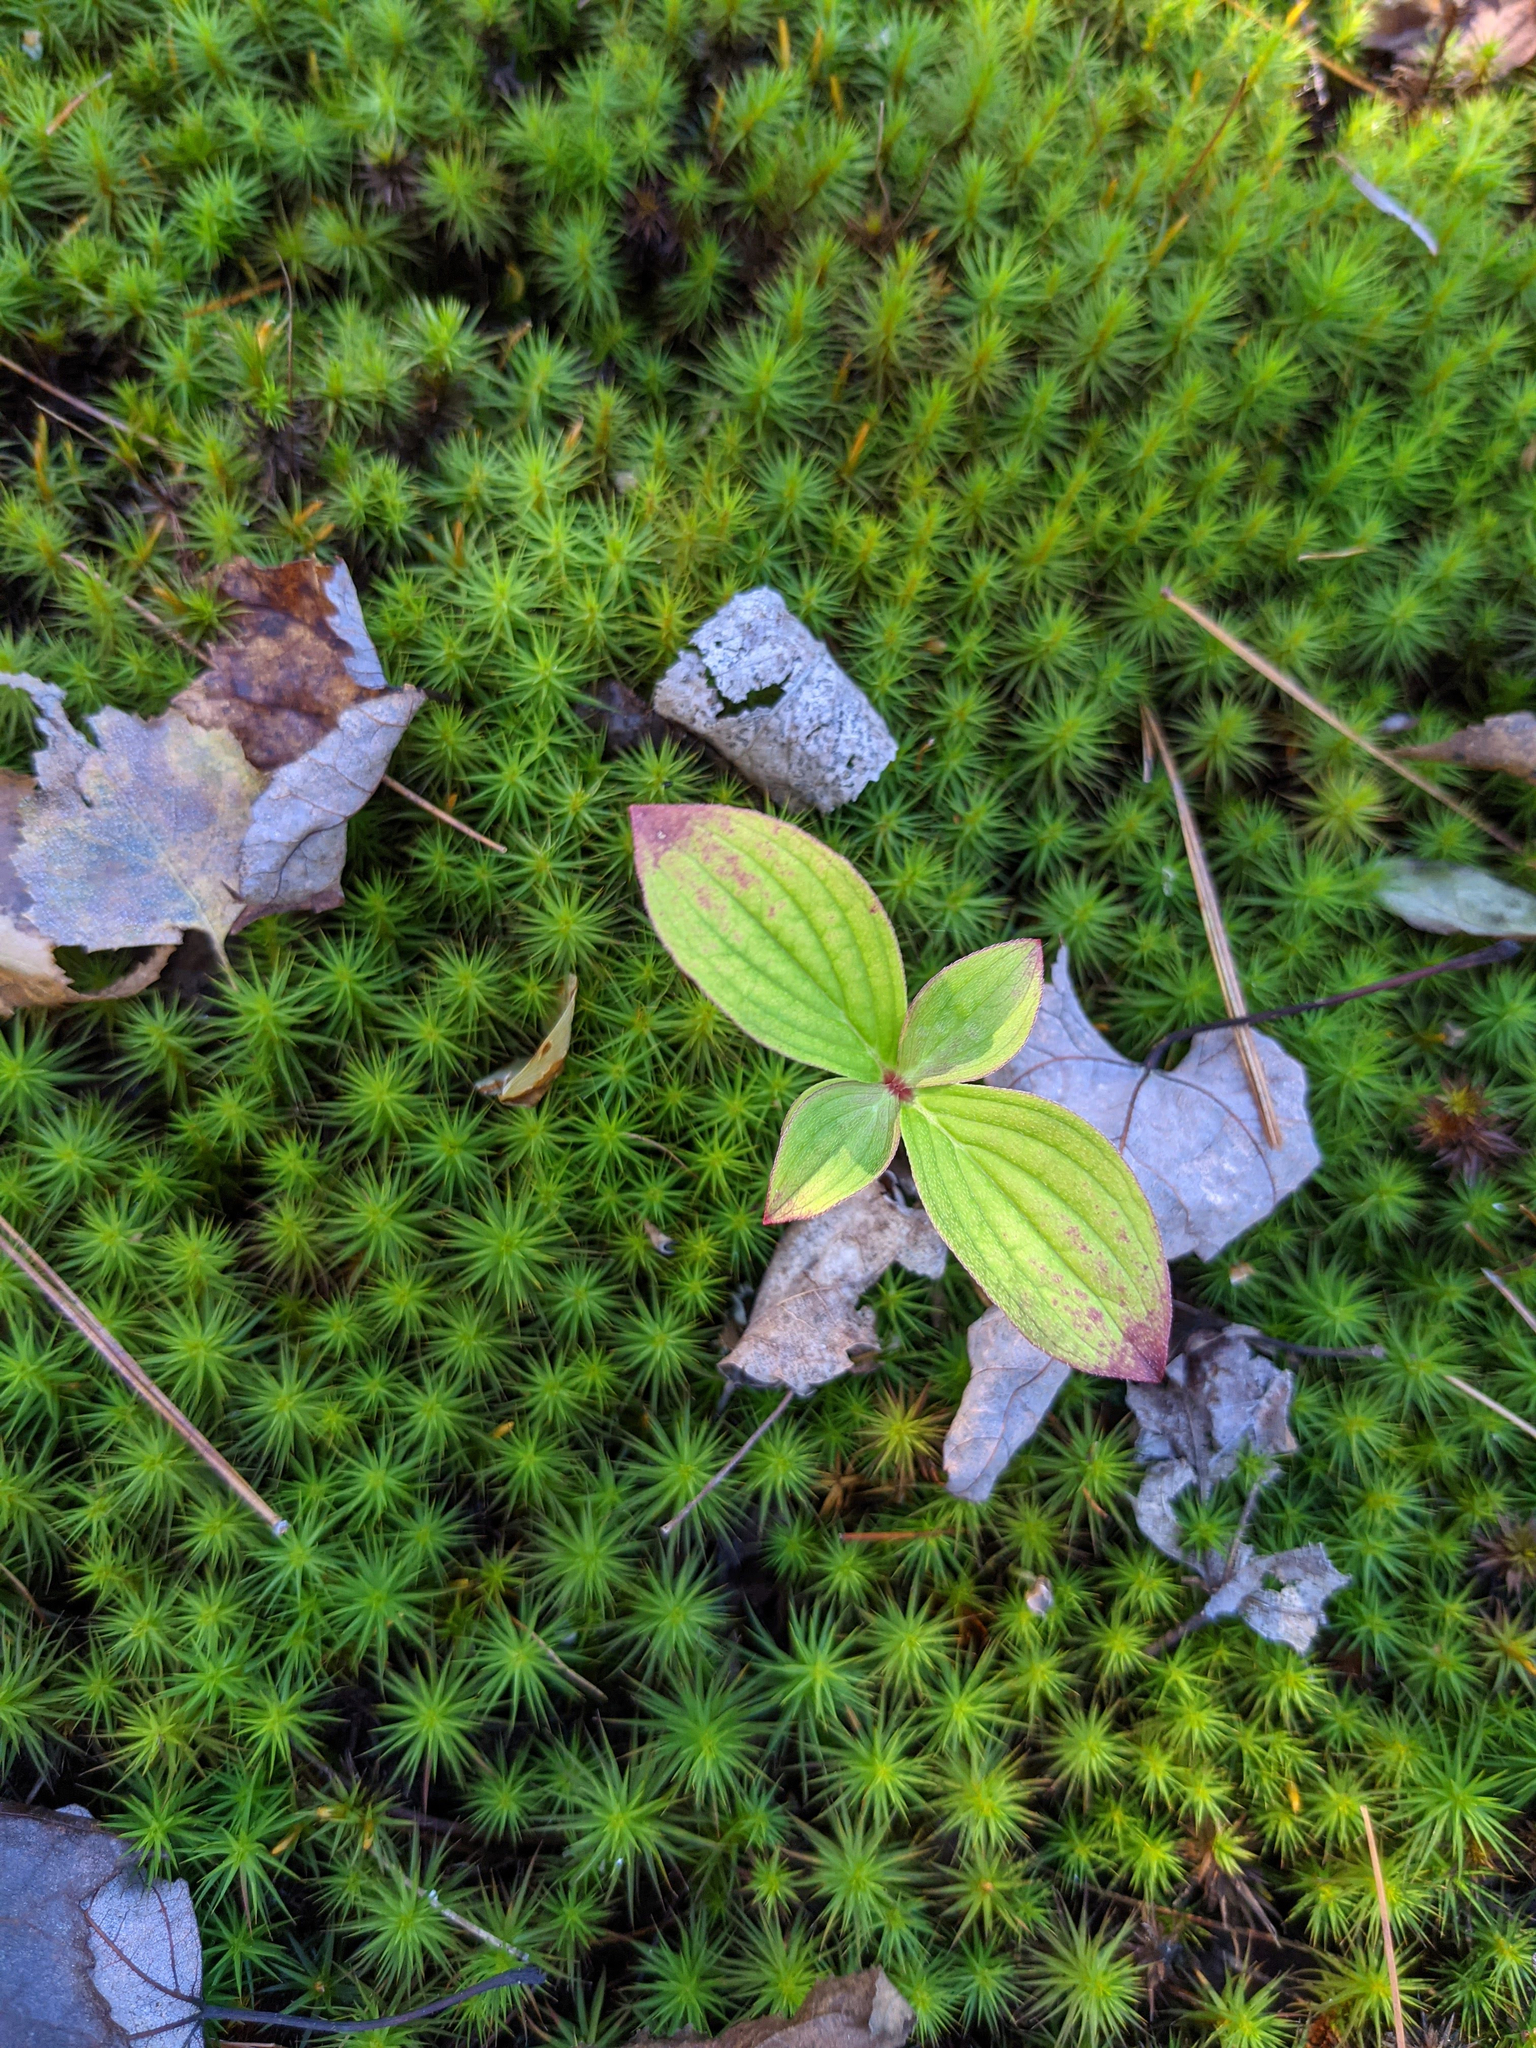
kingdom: Plantae
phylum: Tracheophyta
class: Magnoliopsida
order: Cornales
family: Cornaceae
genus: Cornus
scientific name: Cornus canadensis
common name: Creeping dogwood
